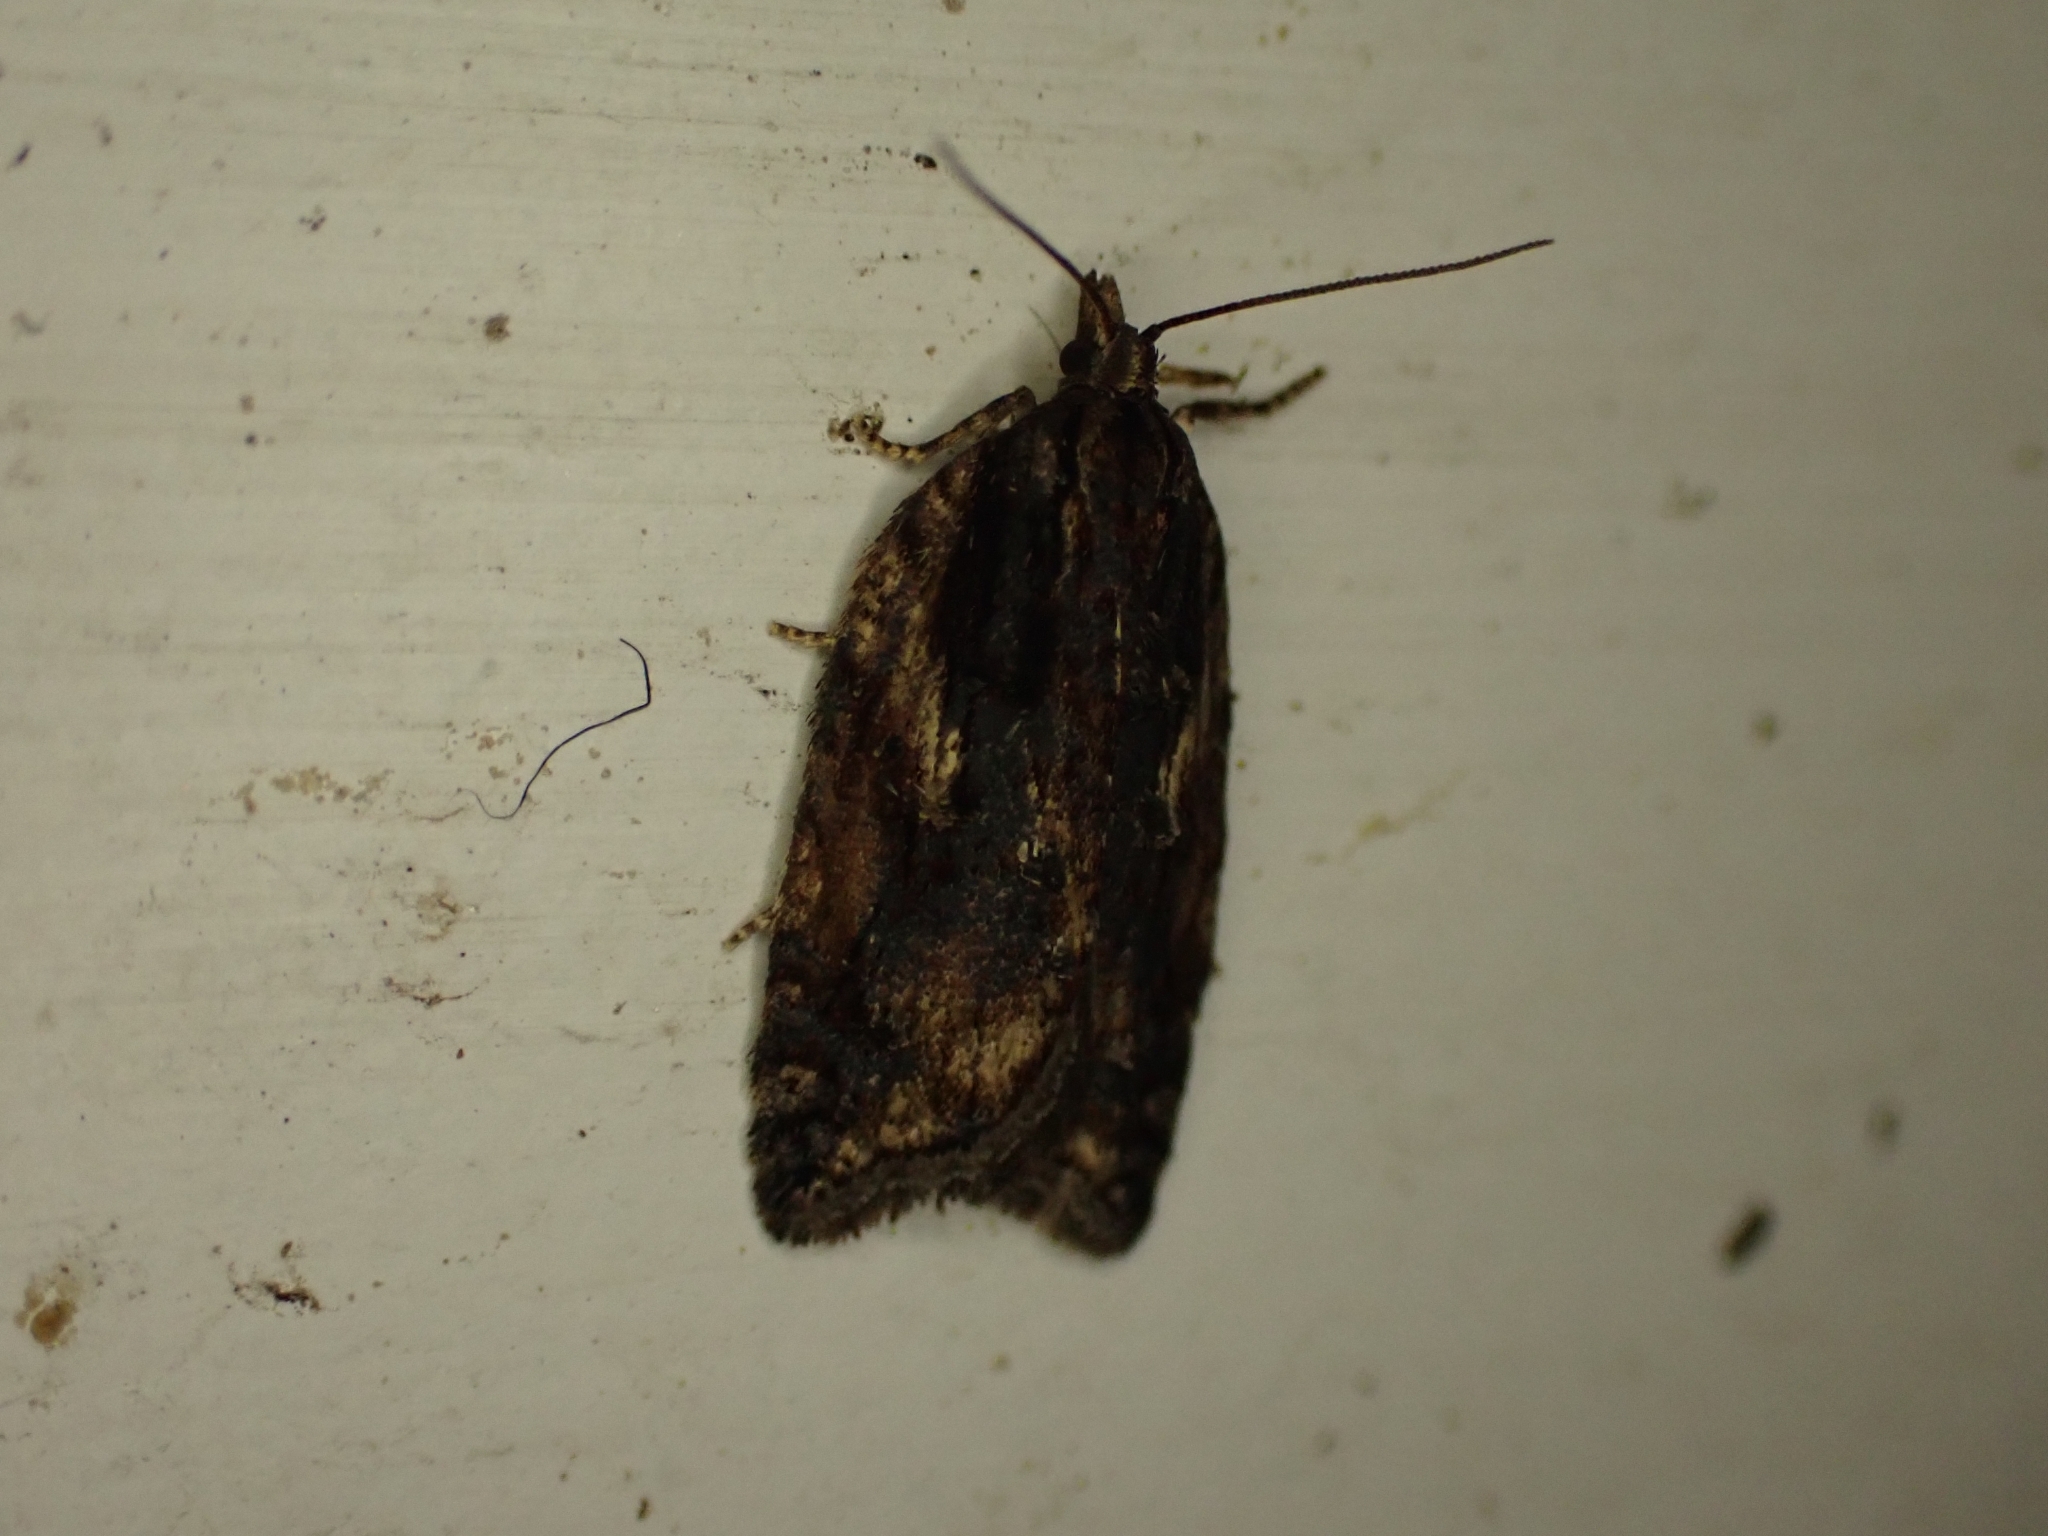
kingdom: Animalia
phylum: Arthropoda
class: Insecta
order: Lepidoptera
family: Tortricidae
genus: Acleris
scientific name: Acleris umbrana
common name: Dark-streaked button
